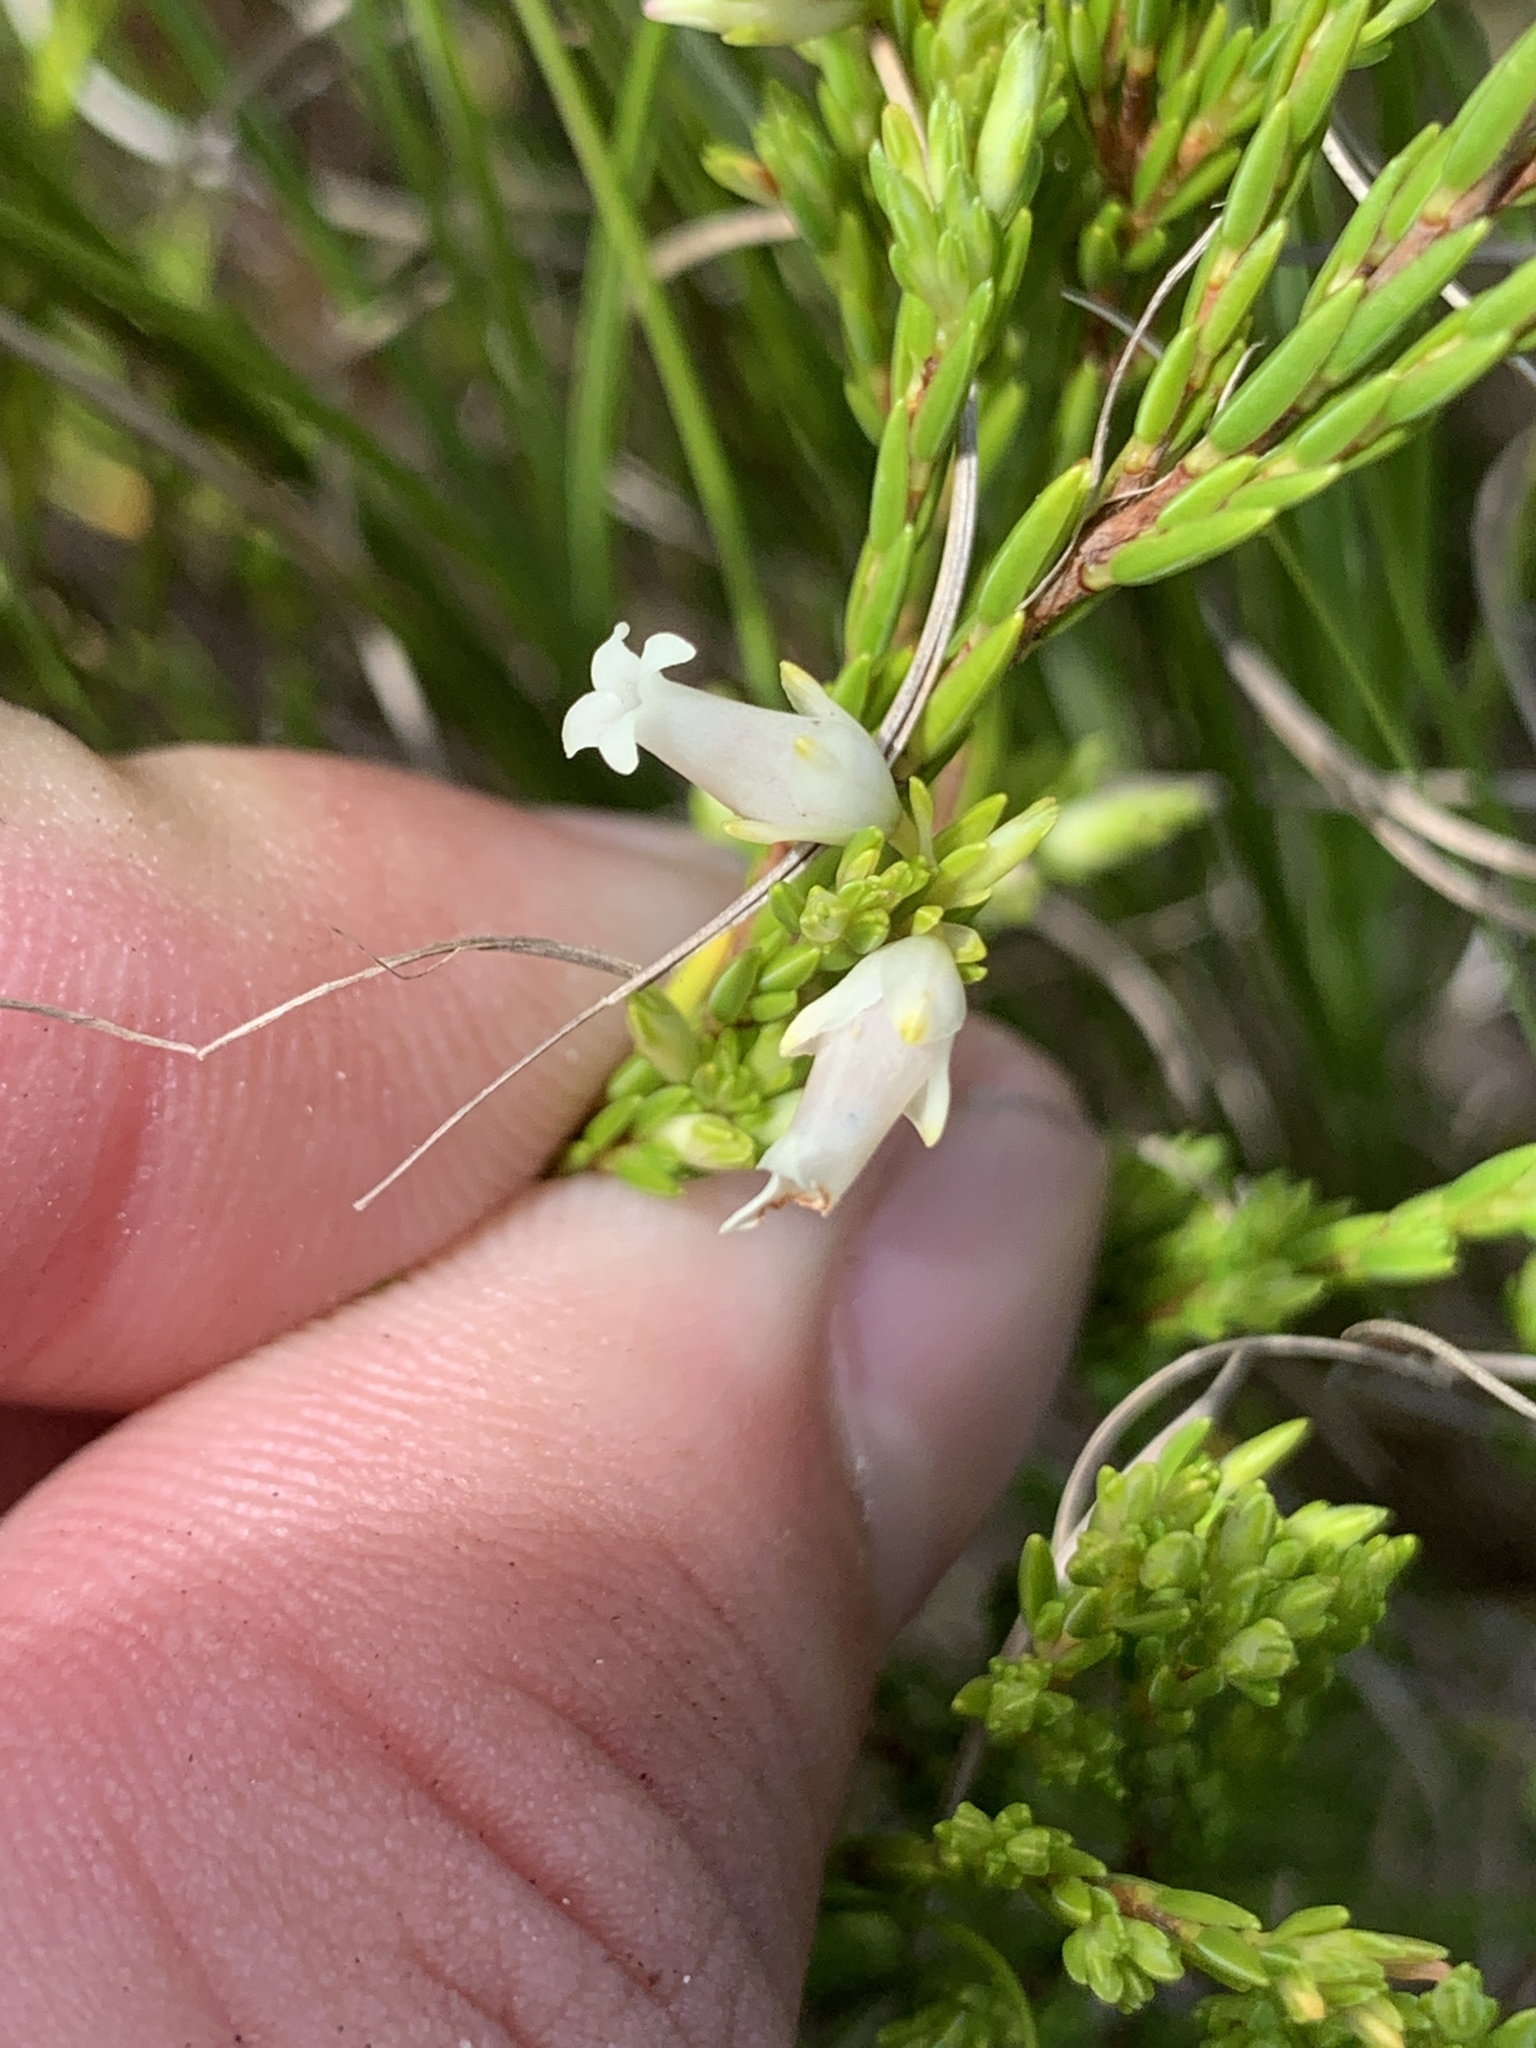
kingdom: Plantae
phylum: Tracheophyta
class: Magnoliopsida
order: Ericales
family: Ericaceae
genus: Erica
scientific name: Erica lutea
